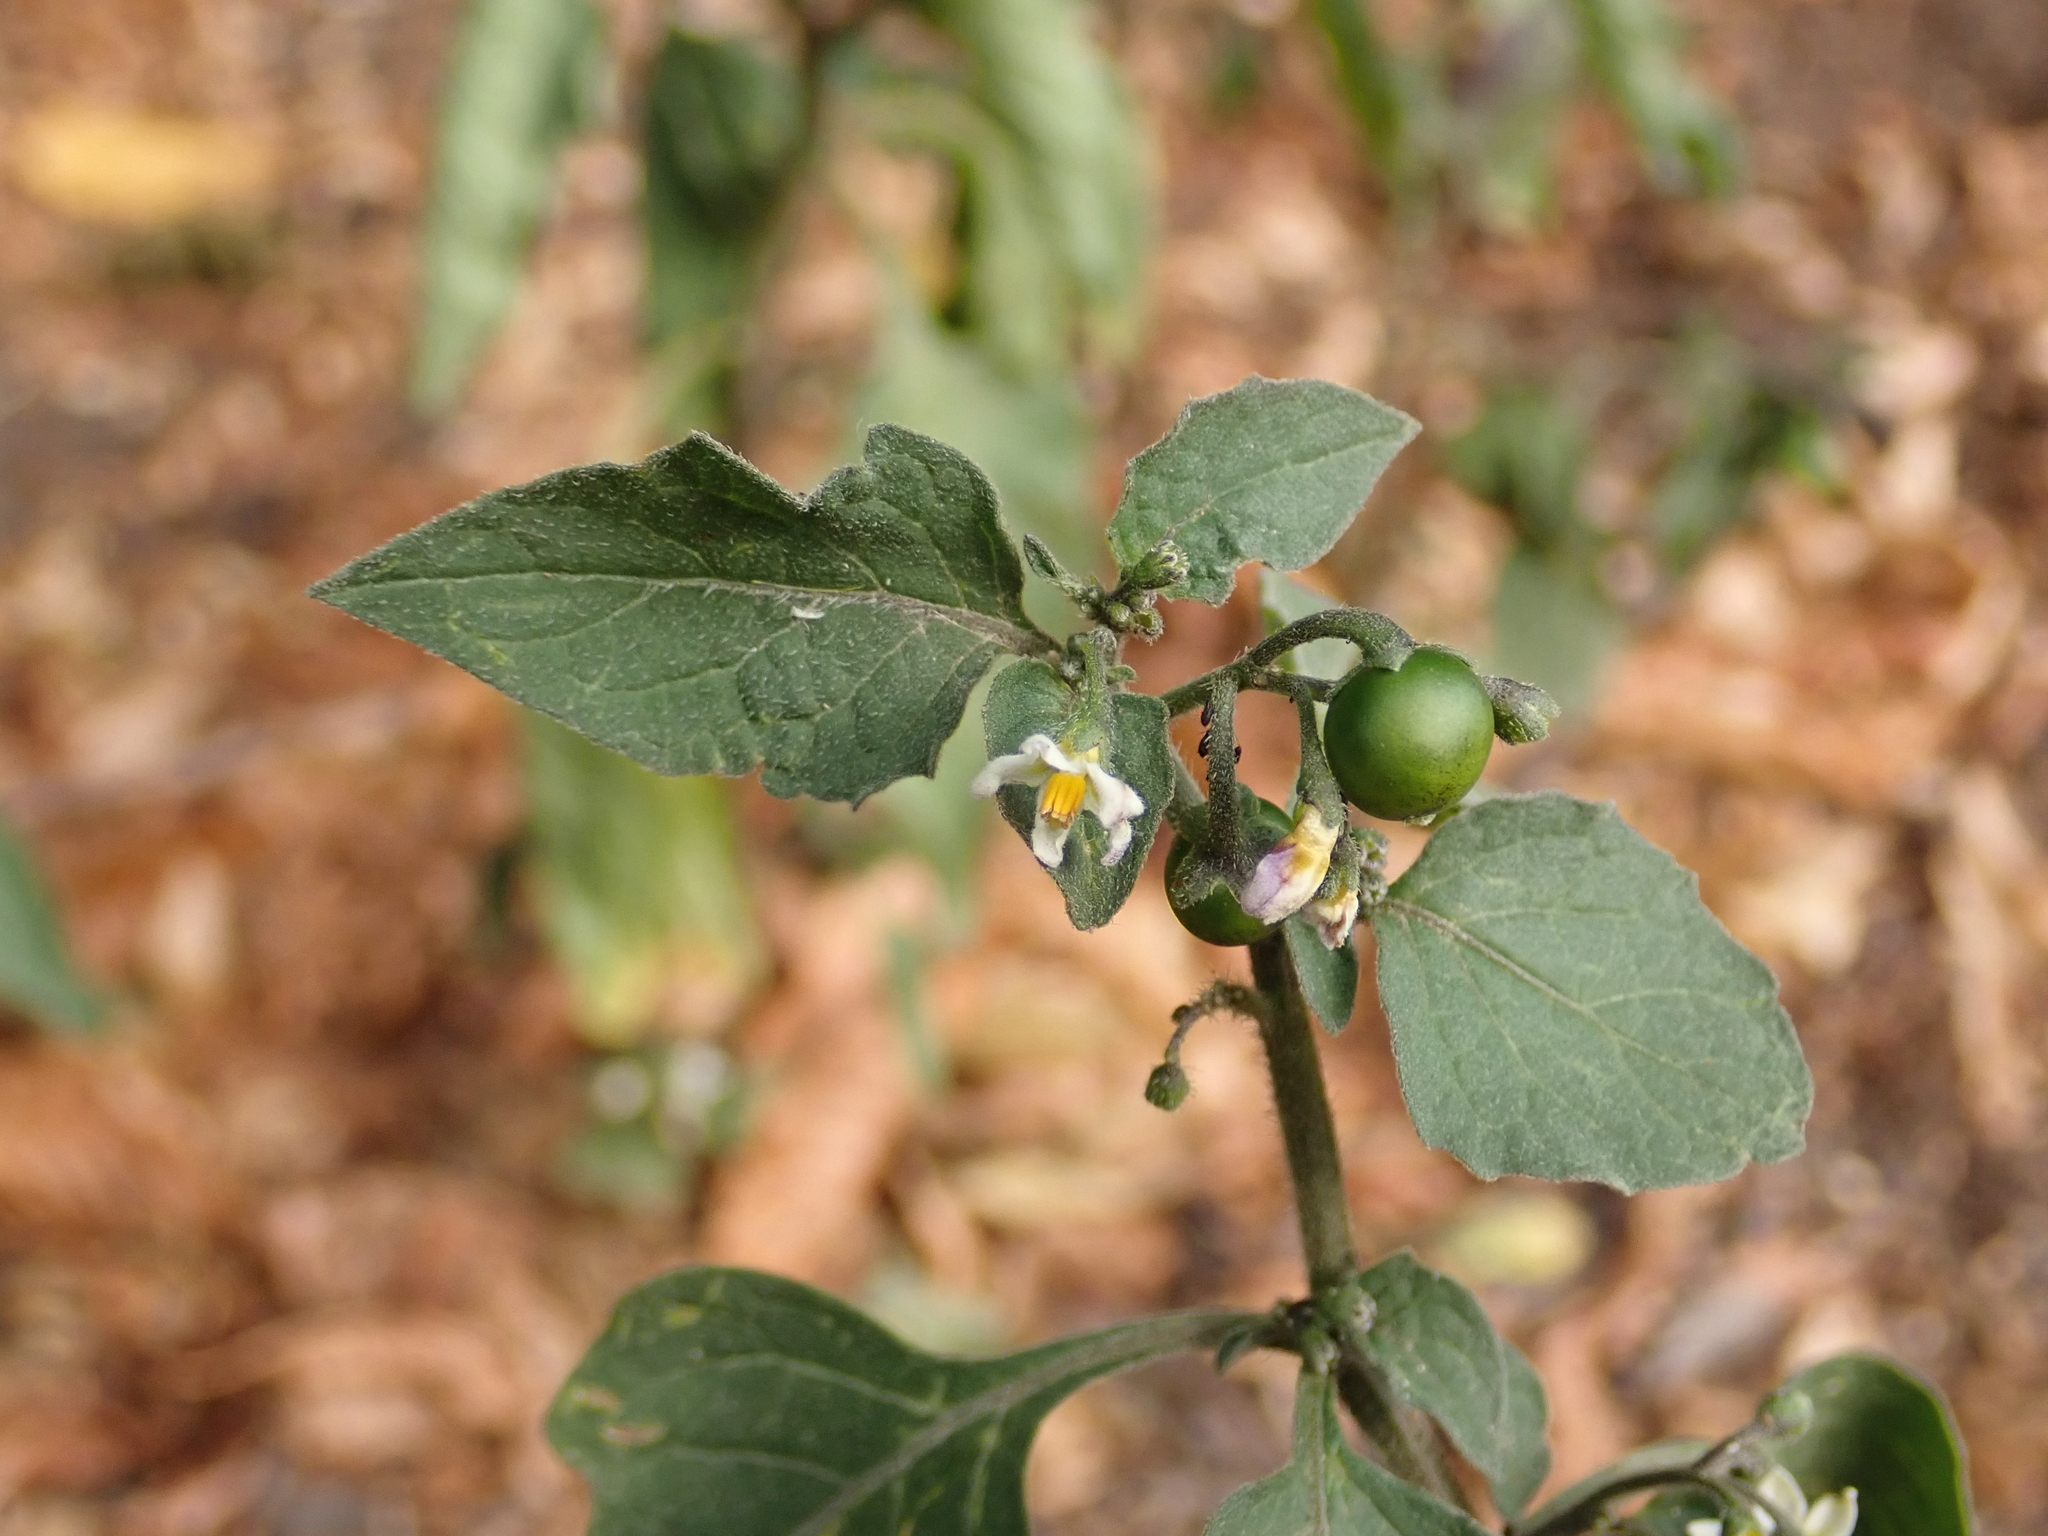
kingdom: Plantae
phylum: Tracheophyta
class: Magnoliopsida
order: Solanales
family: Solanaceae
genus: Solanum
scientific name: Solanum nigrum
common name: Black nightshade
